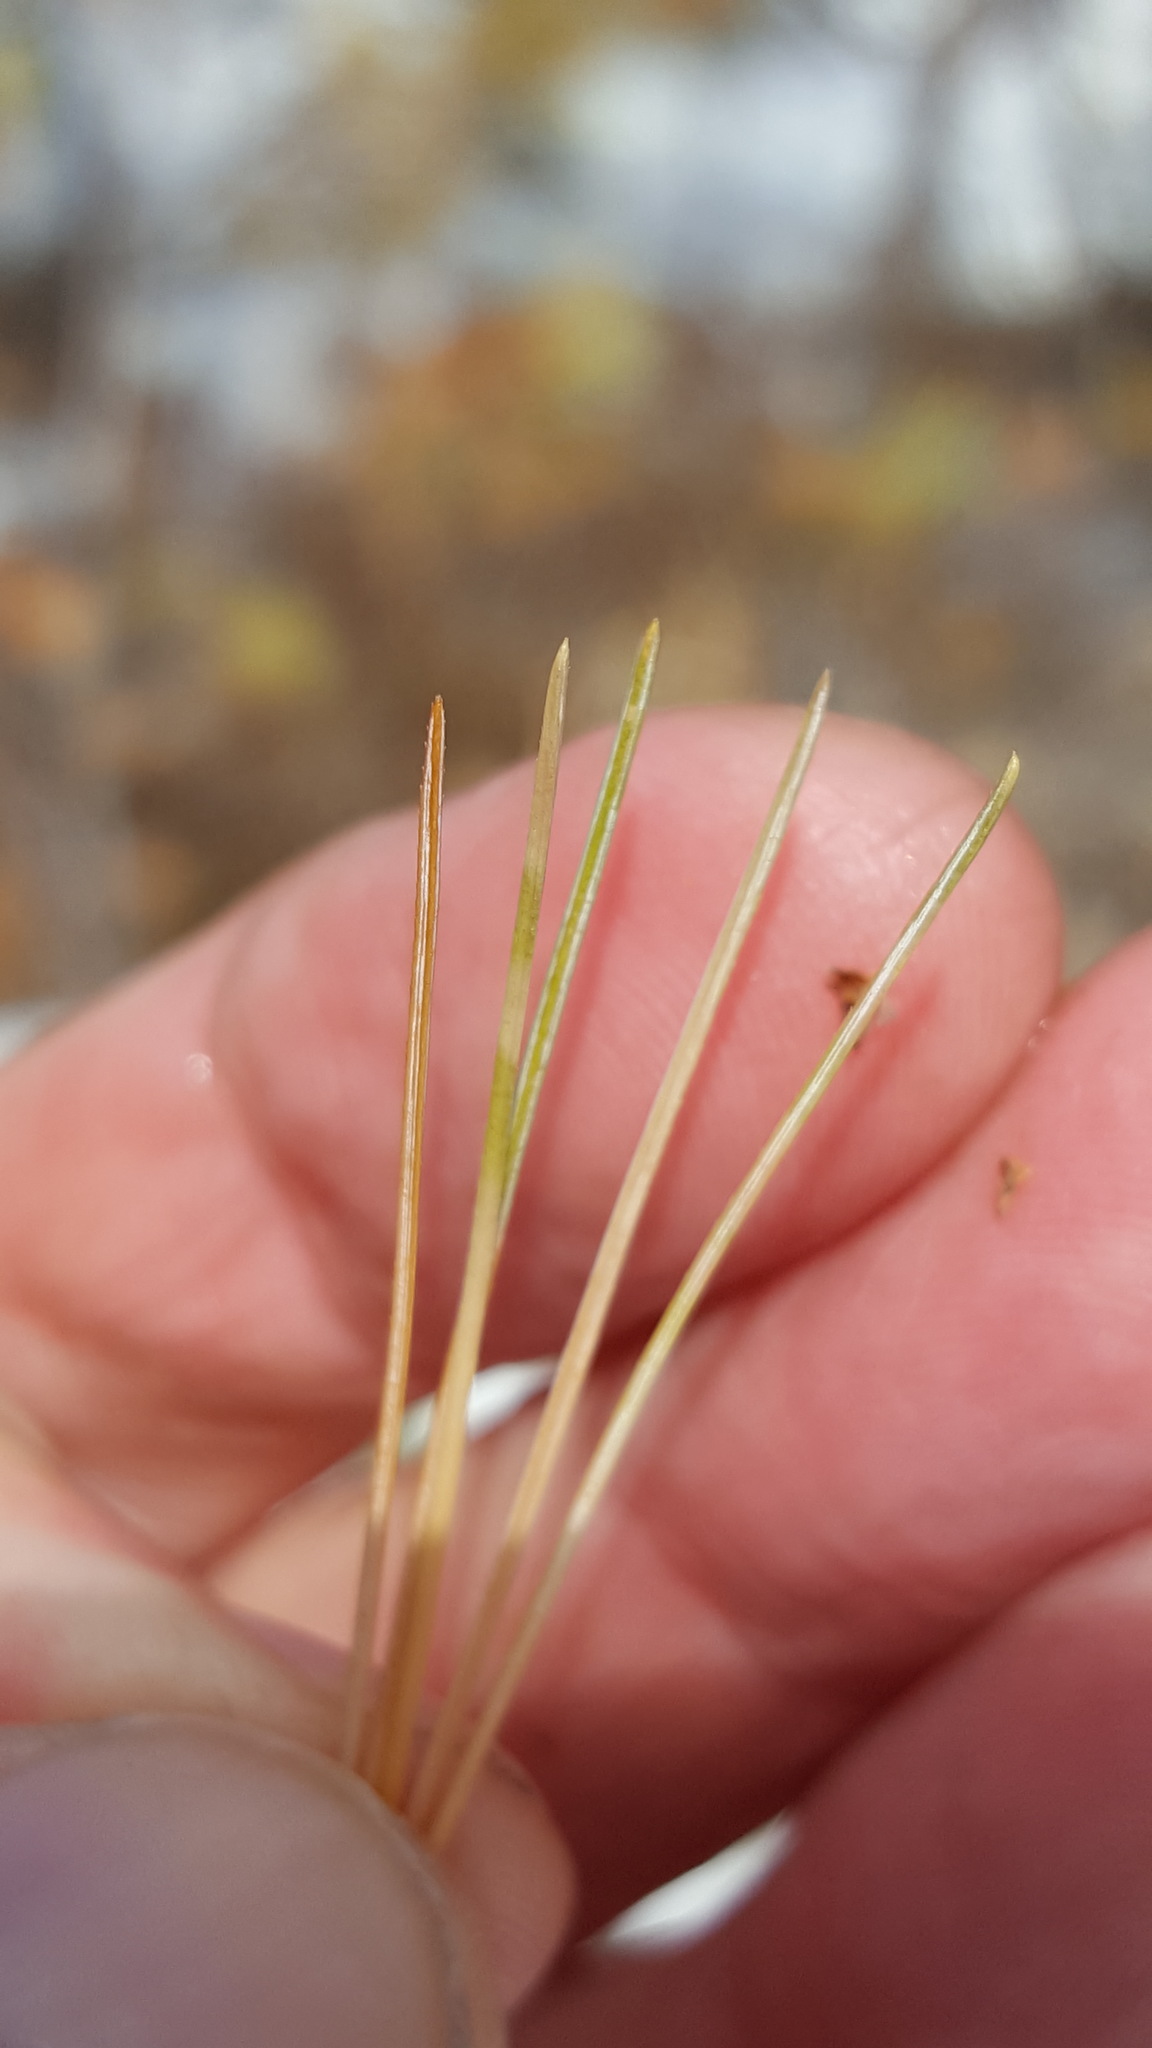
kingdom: Plantae
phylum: Tracheophyta
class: Pinopsida
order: Pinales
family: Pinaceae
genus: Pinus
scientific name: Pinus strobus
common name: Weymouth pine
